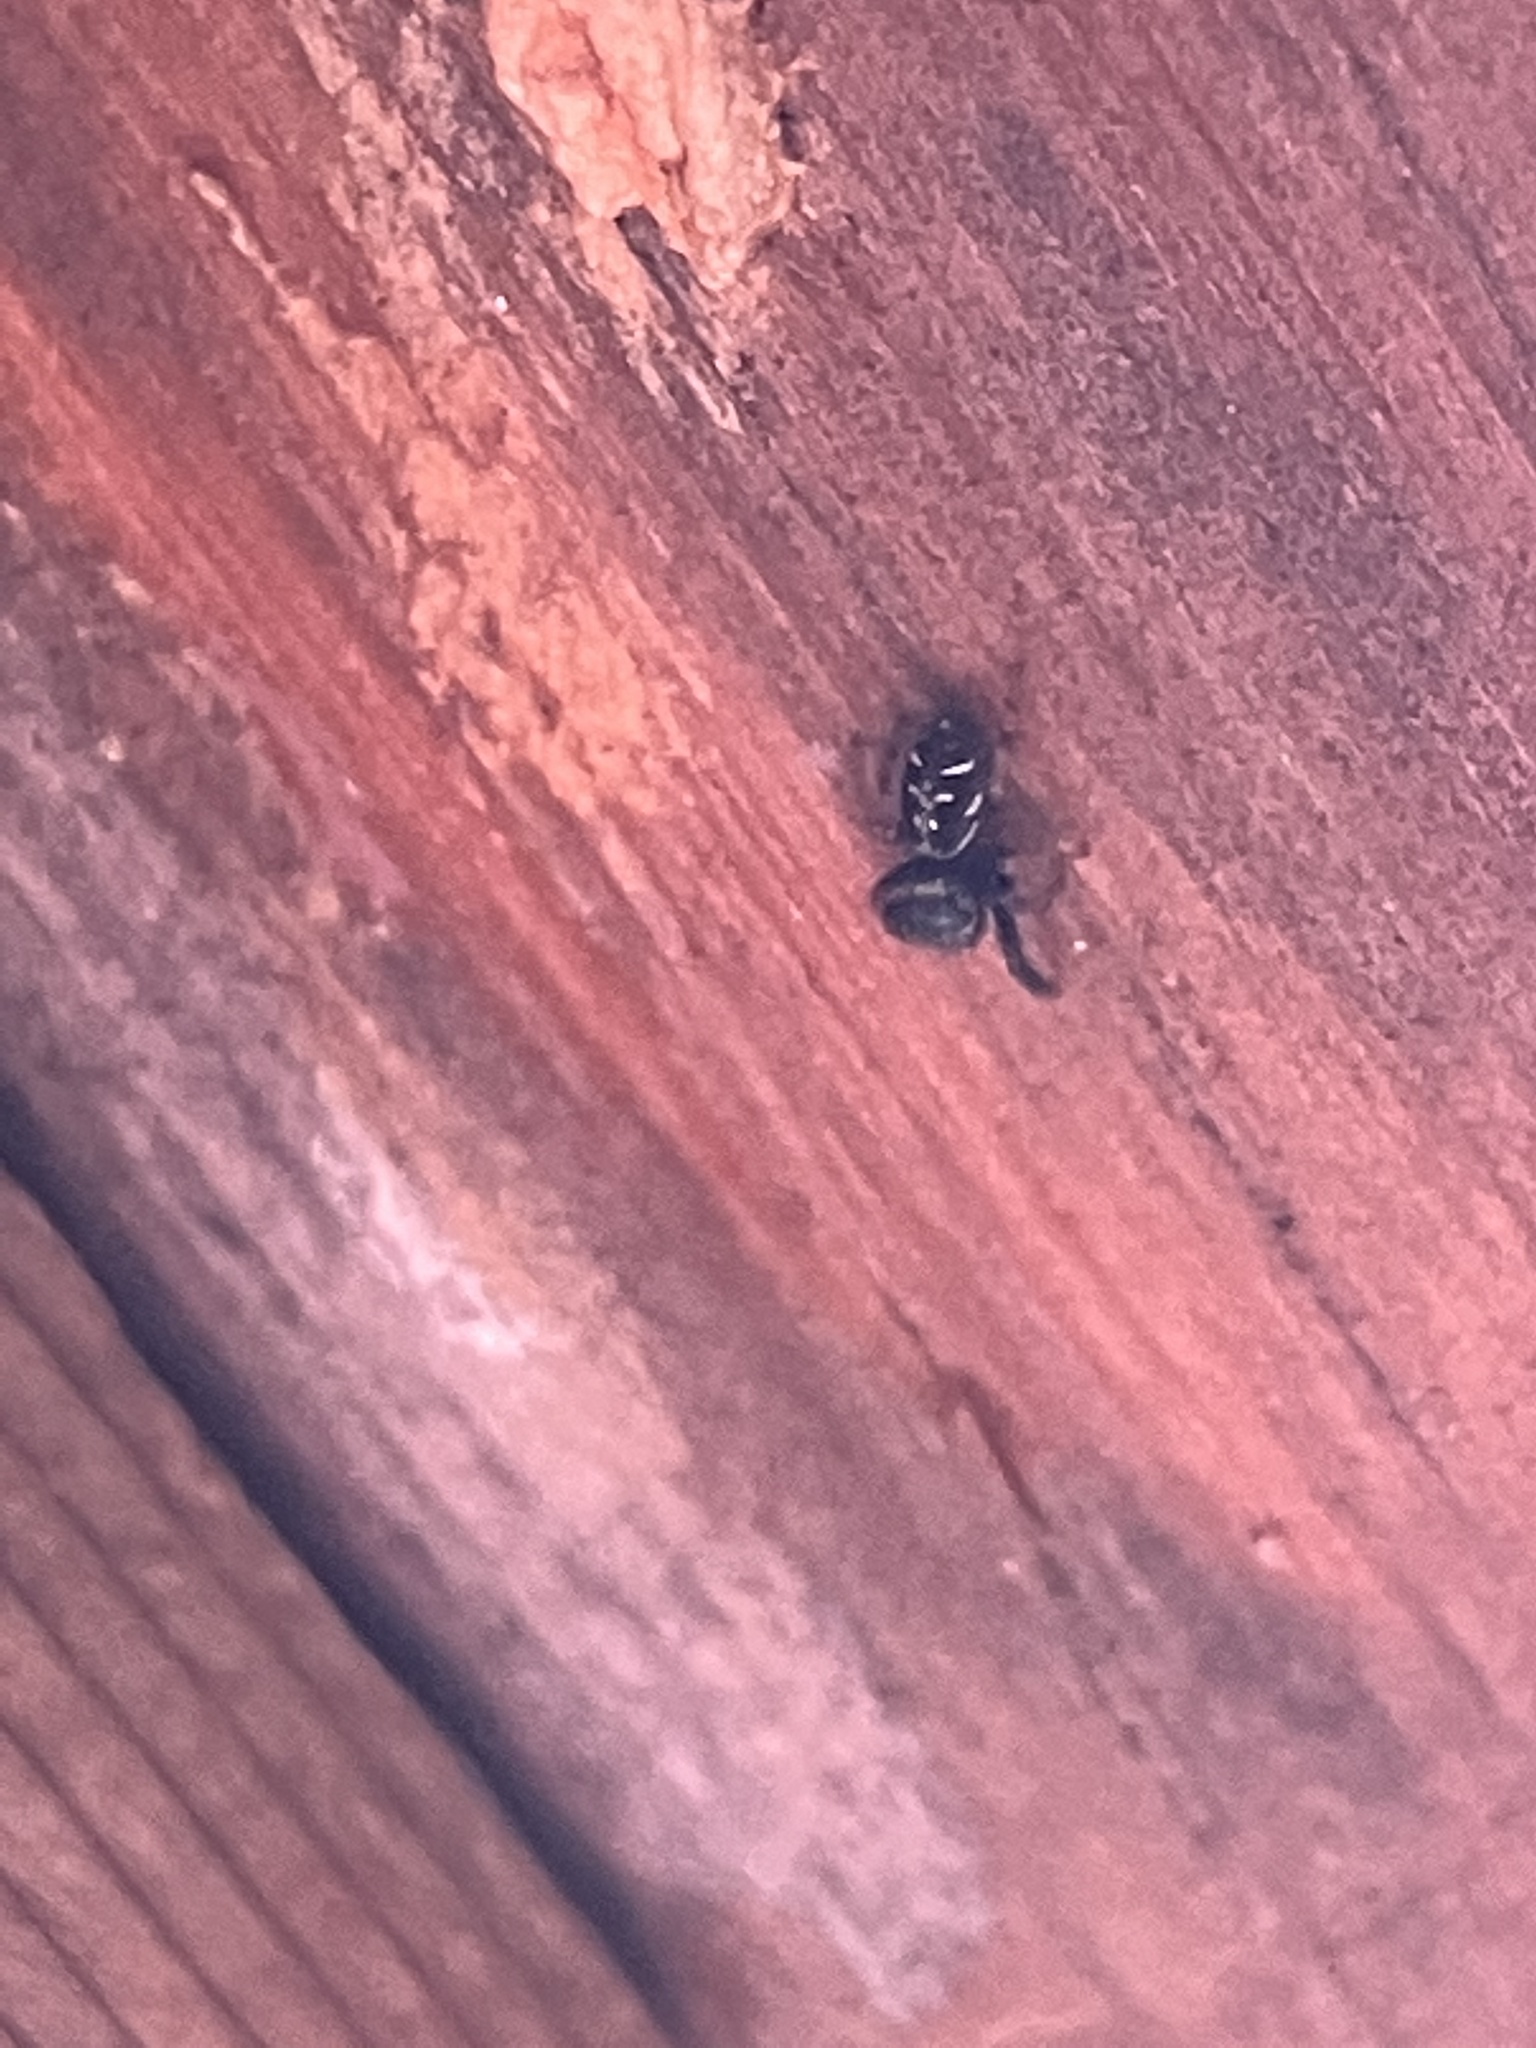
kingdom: Animalia
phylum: Arthropoda
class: Arachnida
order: Araneae
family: Salticidae
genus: Paraphidippus
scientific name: Paraphidippus aurantius
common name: Jumping spiders
